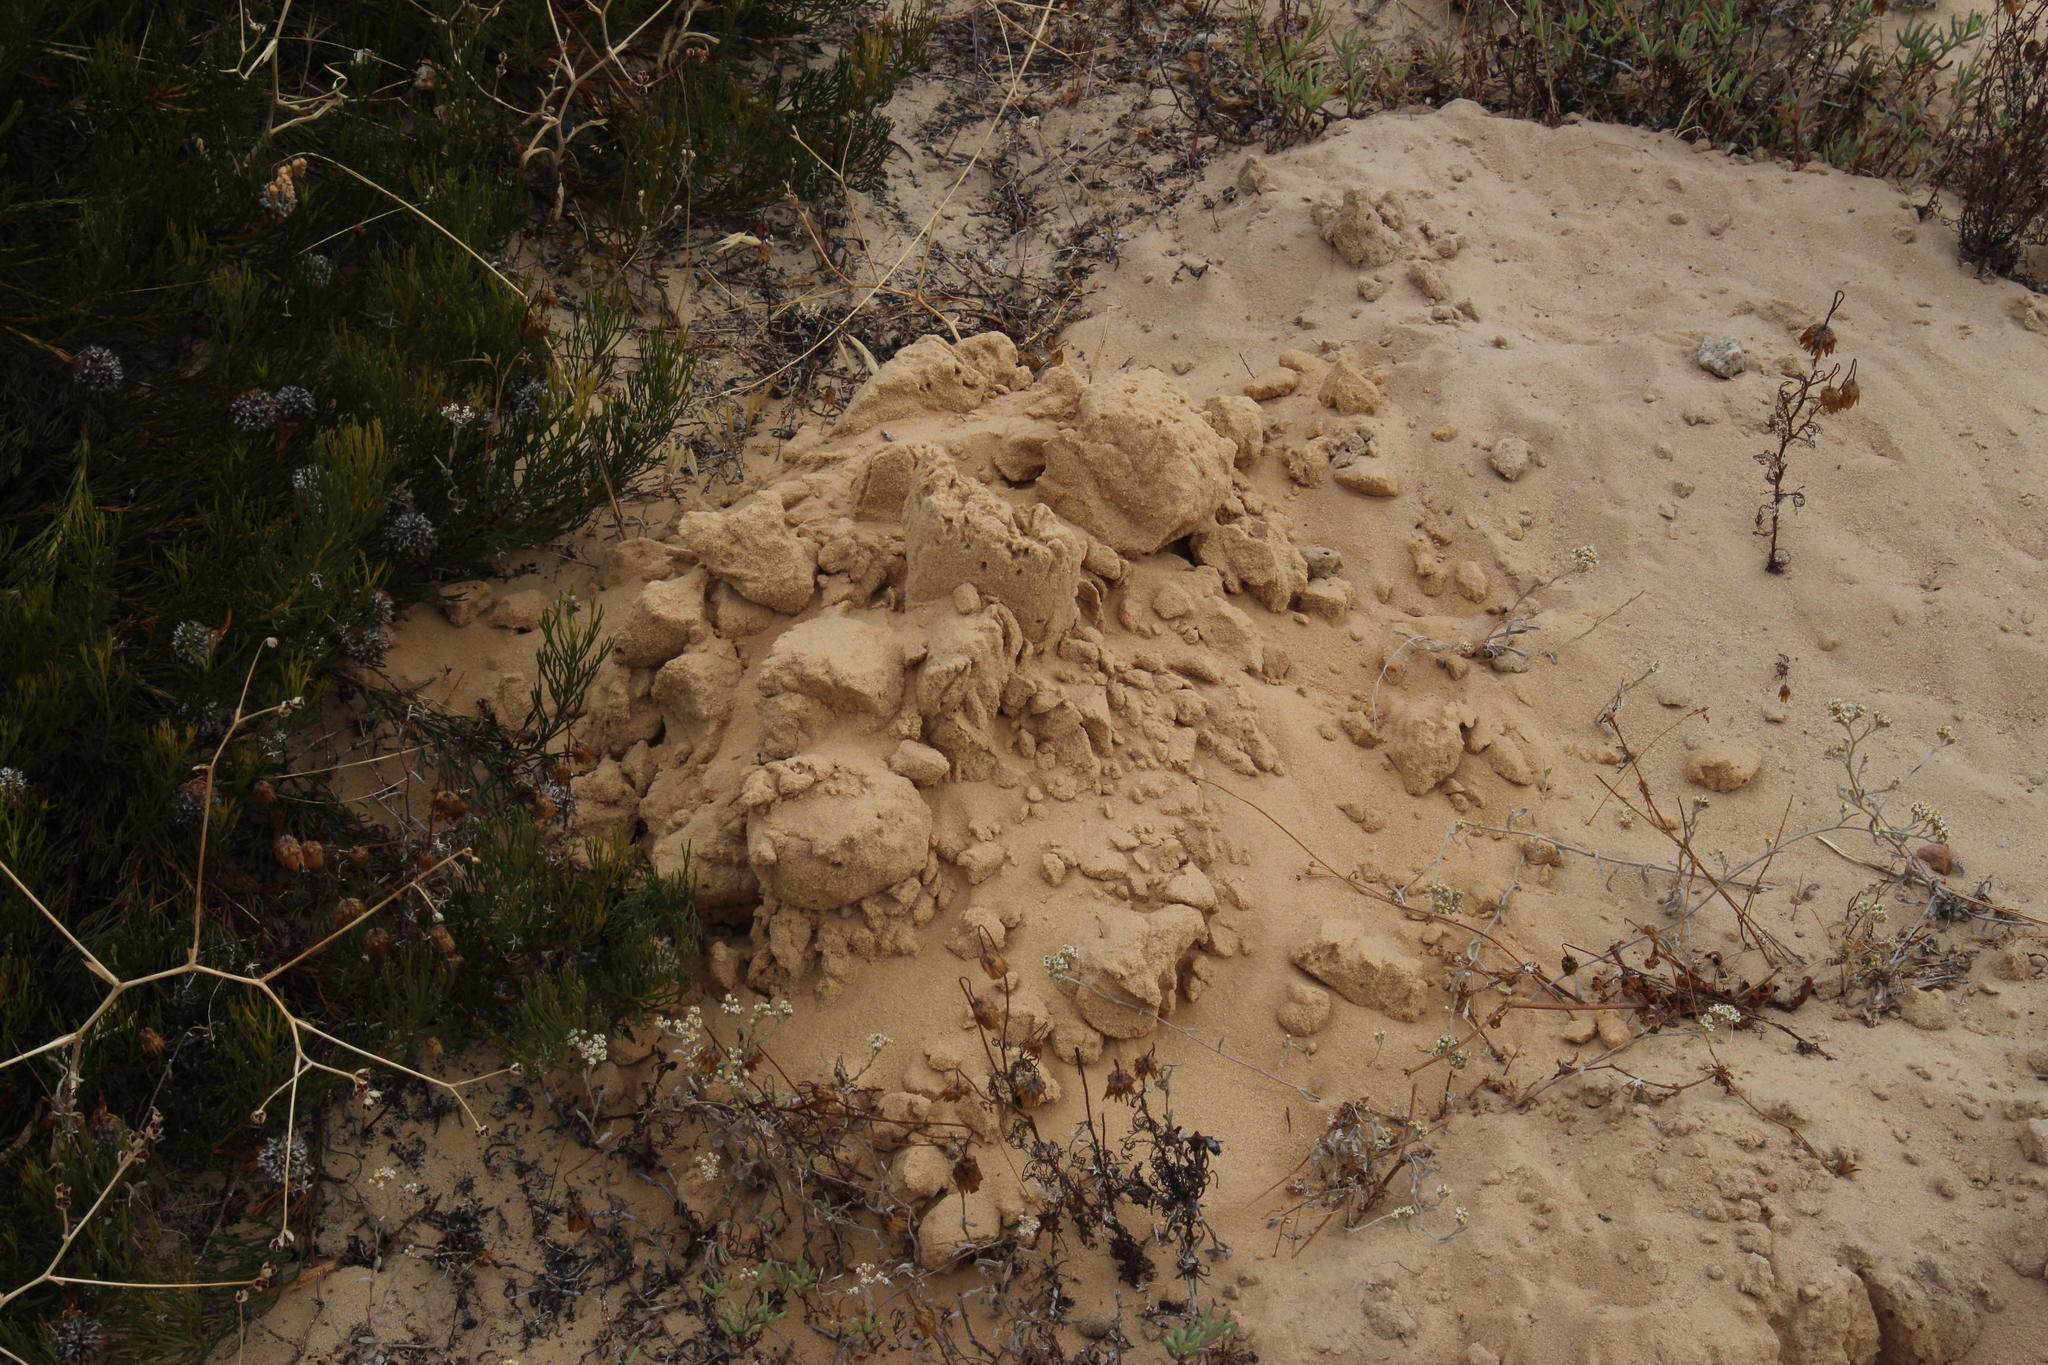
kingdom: Animalia
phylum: Chordata
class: Mammalia
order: Rodentia
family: Bathyergidae
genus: Bathyergus
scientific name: Bathyergus suillus
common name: Cape dune mole rat
